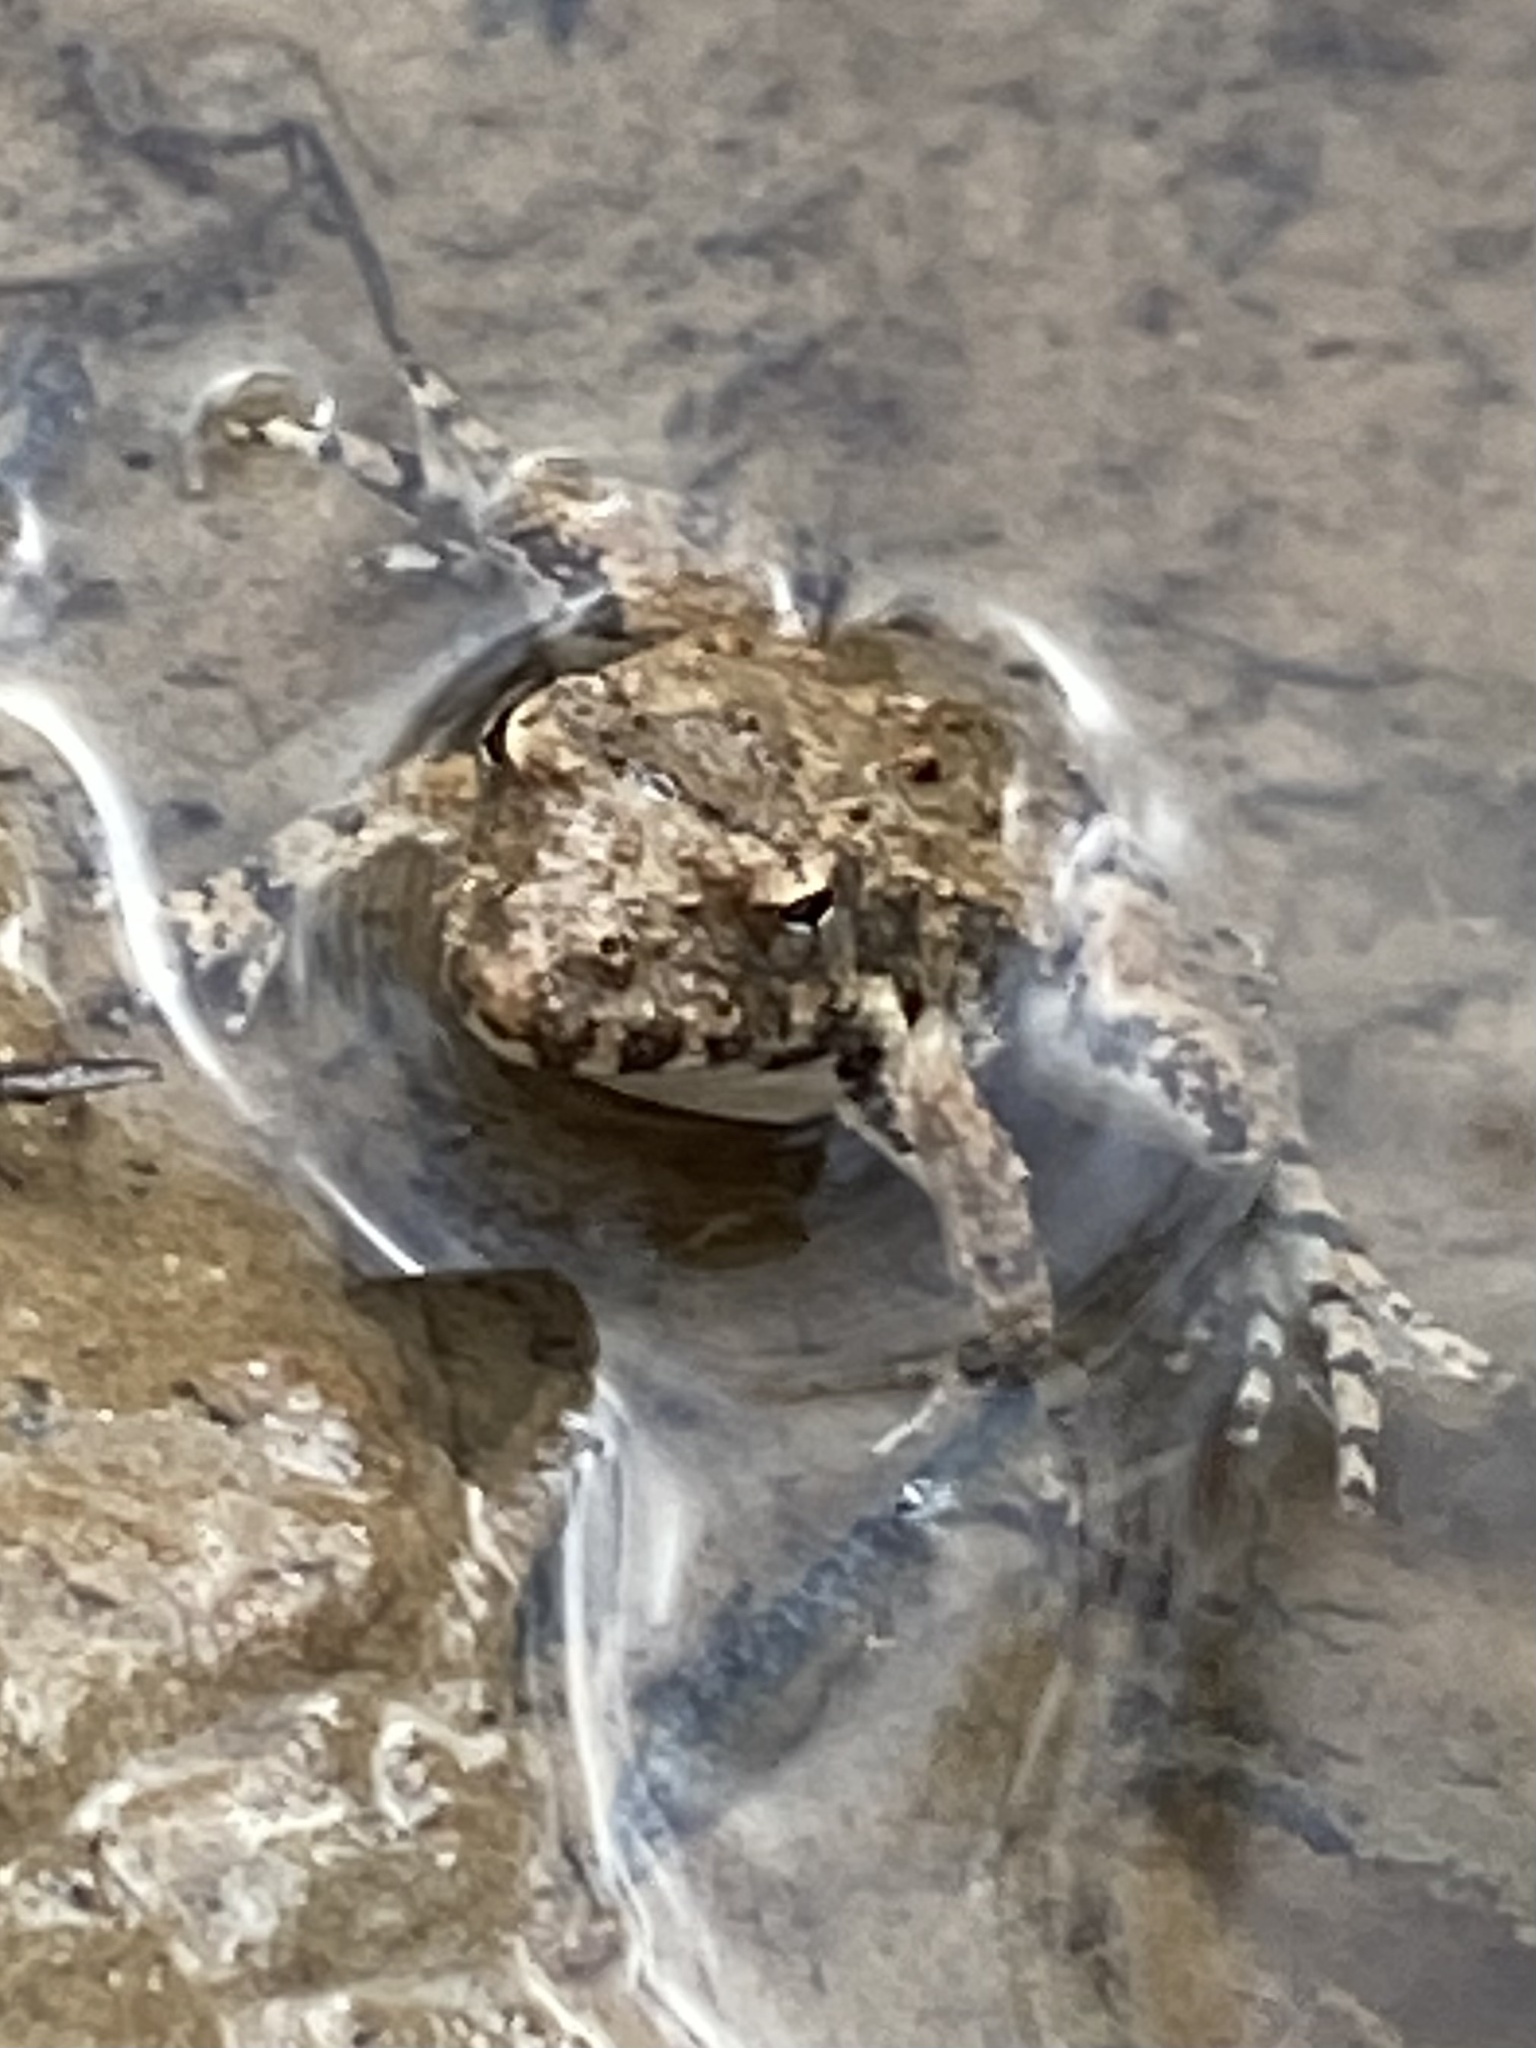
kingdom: Animalia
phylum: Chordata
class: Amphibia
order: Anura
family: Hylidae
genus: Acris
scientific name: Acris blanchardi
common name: Blanchard's cricket frog
